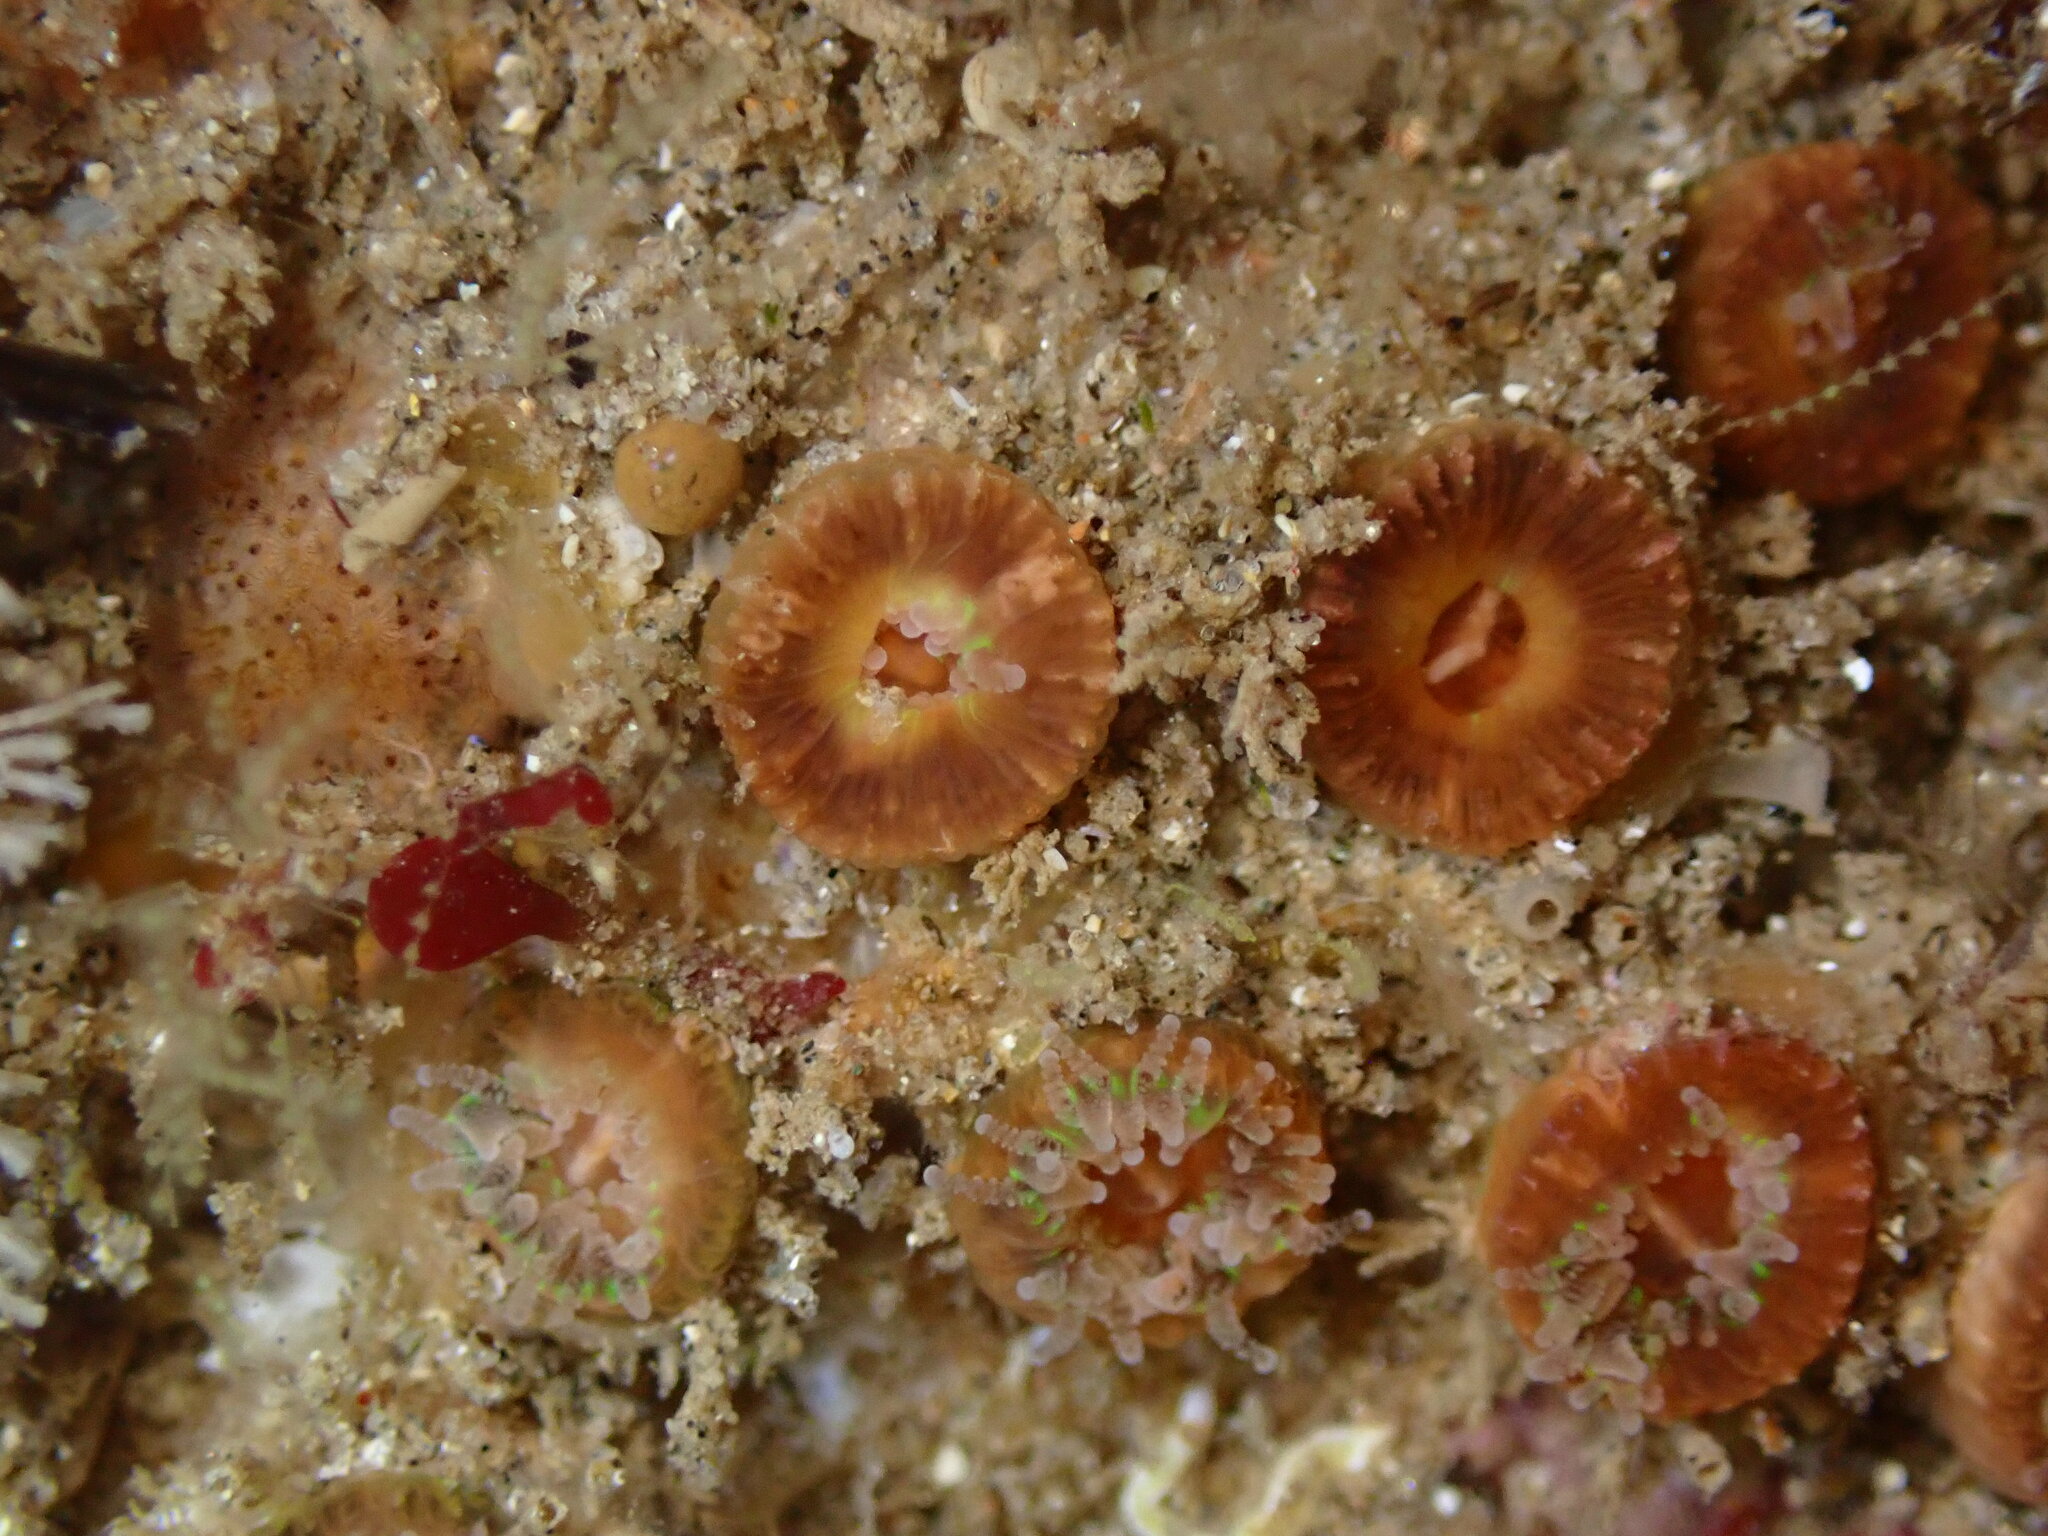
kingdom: Animalia
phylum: Cnidaria
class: Anthozoa
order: Scleractinia
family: Astrangiidae
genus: Astrangia
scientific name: Astrangia haimei
